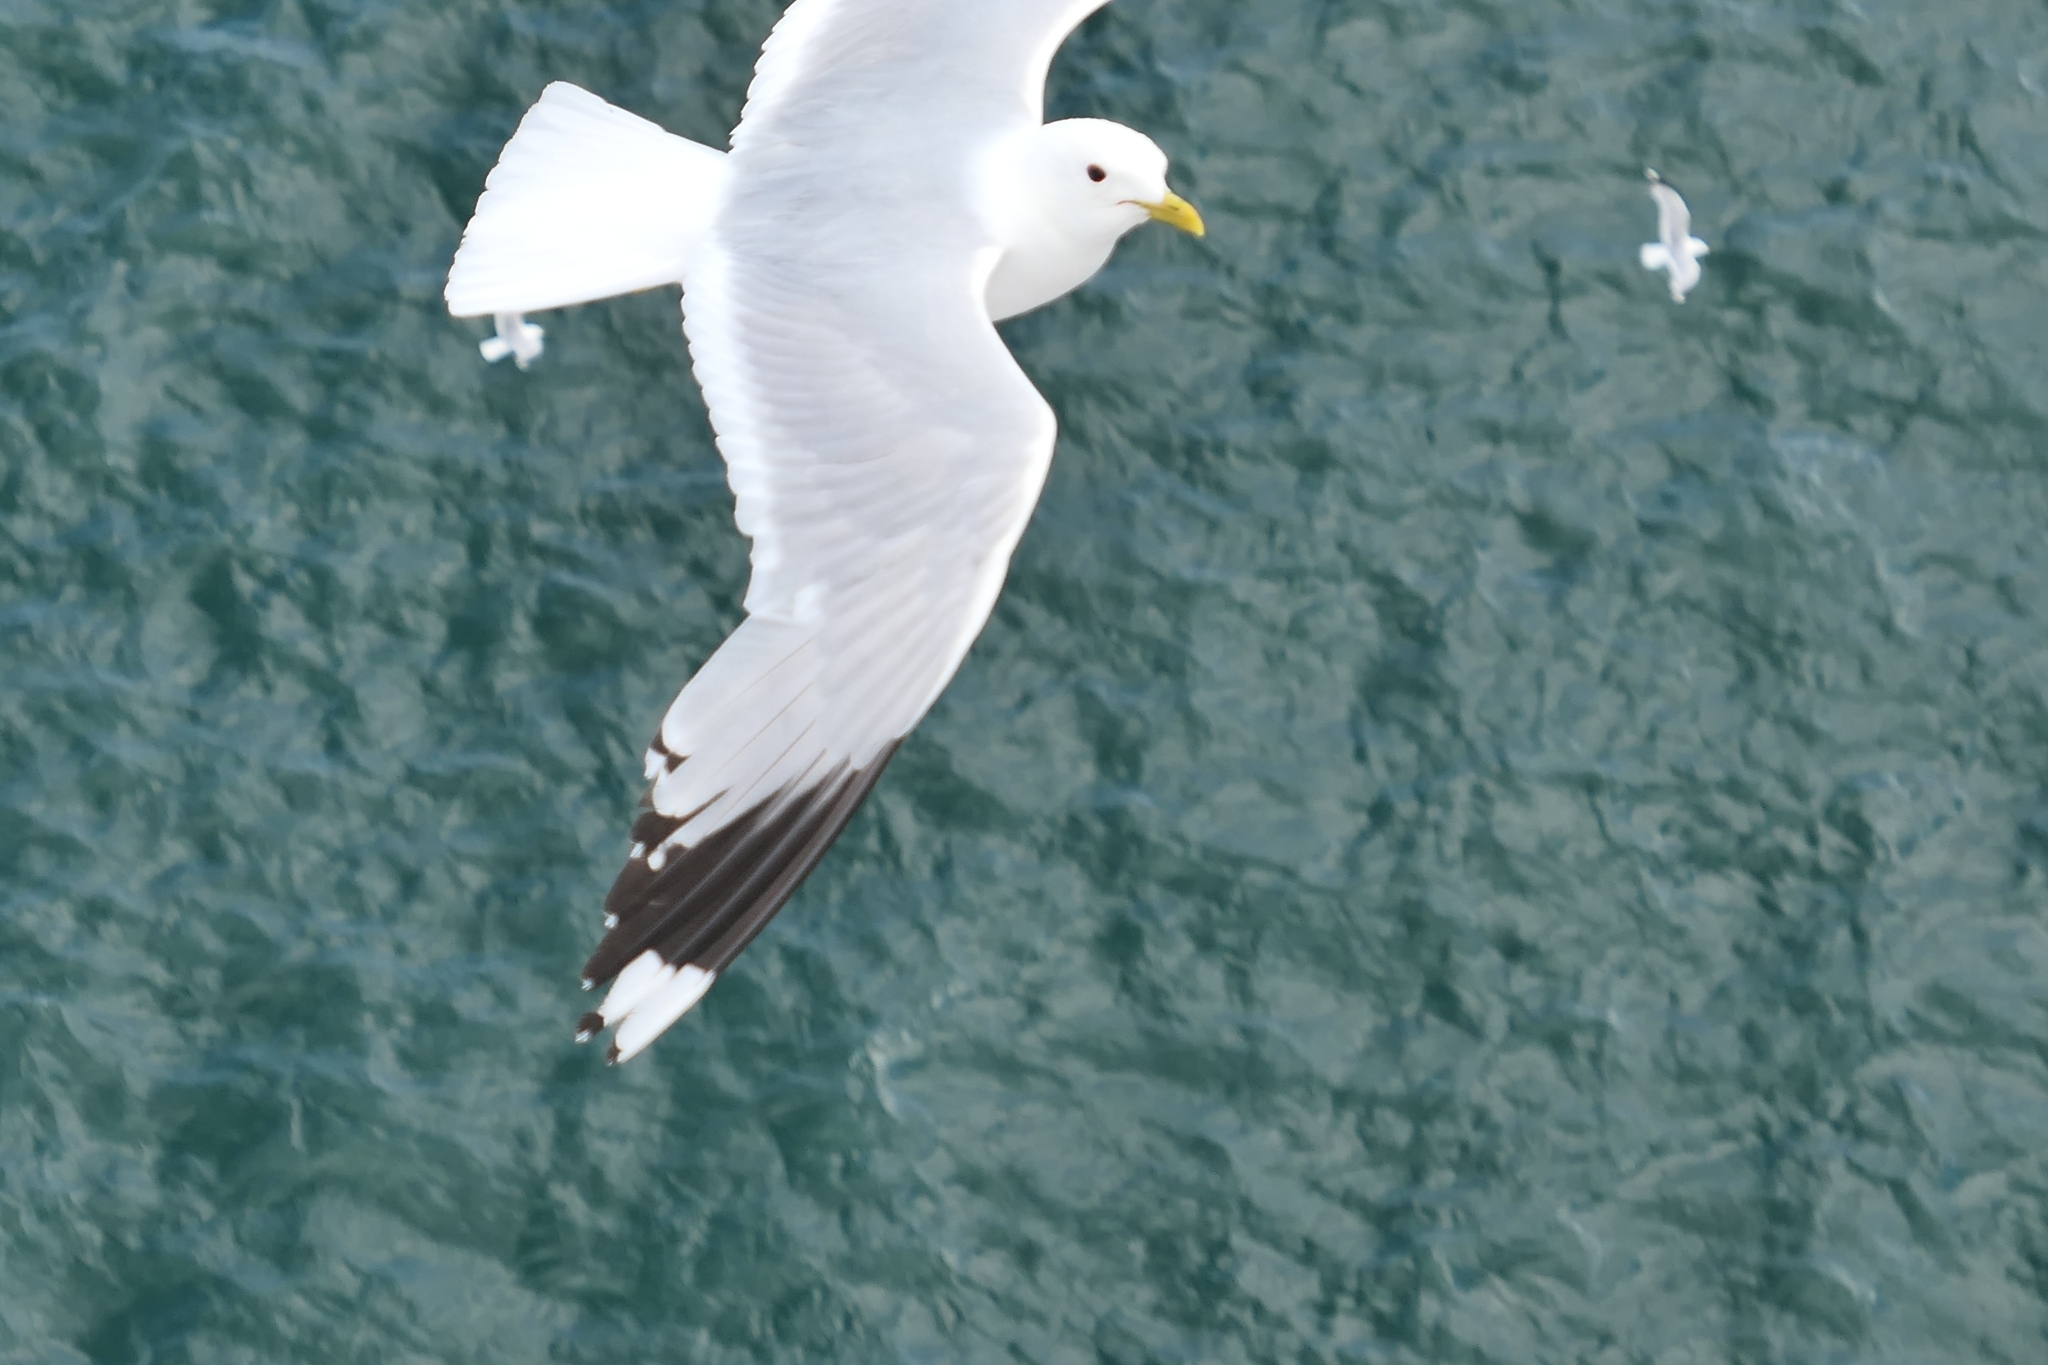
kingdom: Animalia
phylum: Chordata
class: Aves
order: Charadriiformes
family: Laridae
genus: Larus
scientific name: Larus canus
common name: Mew gull
